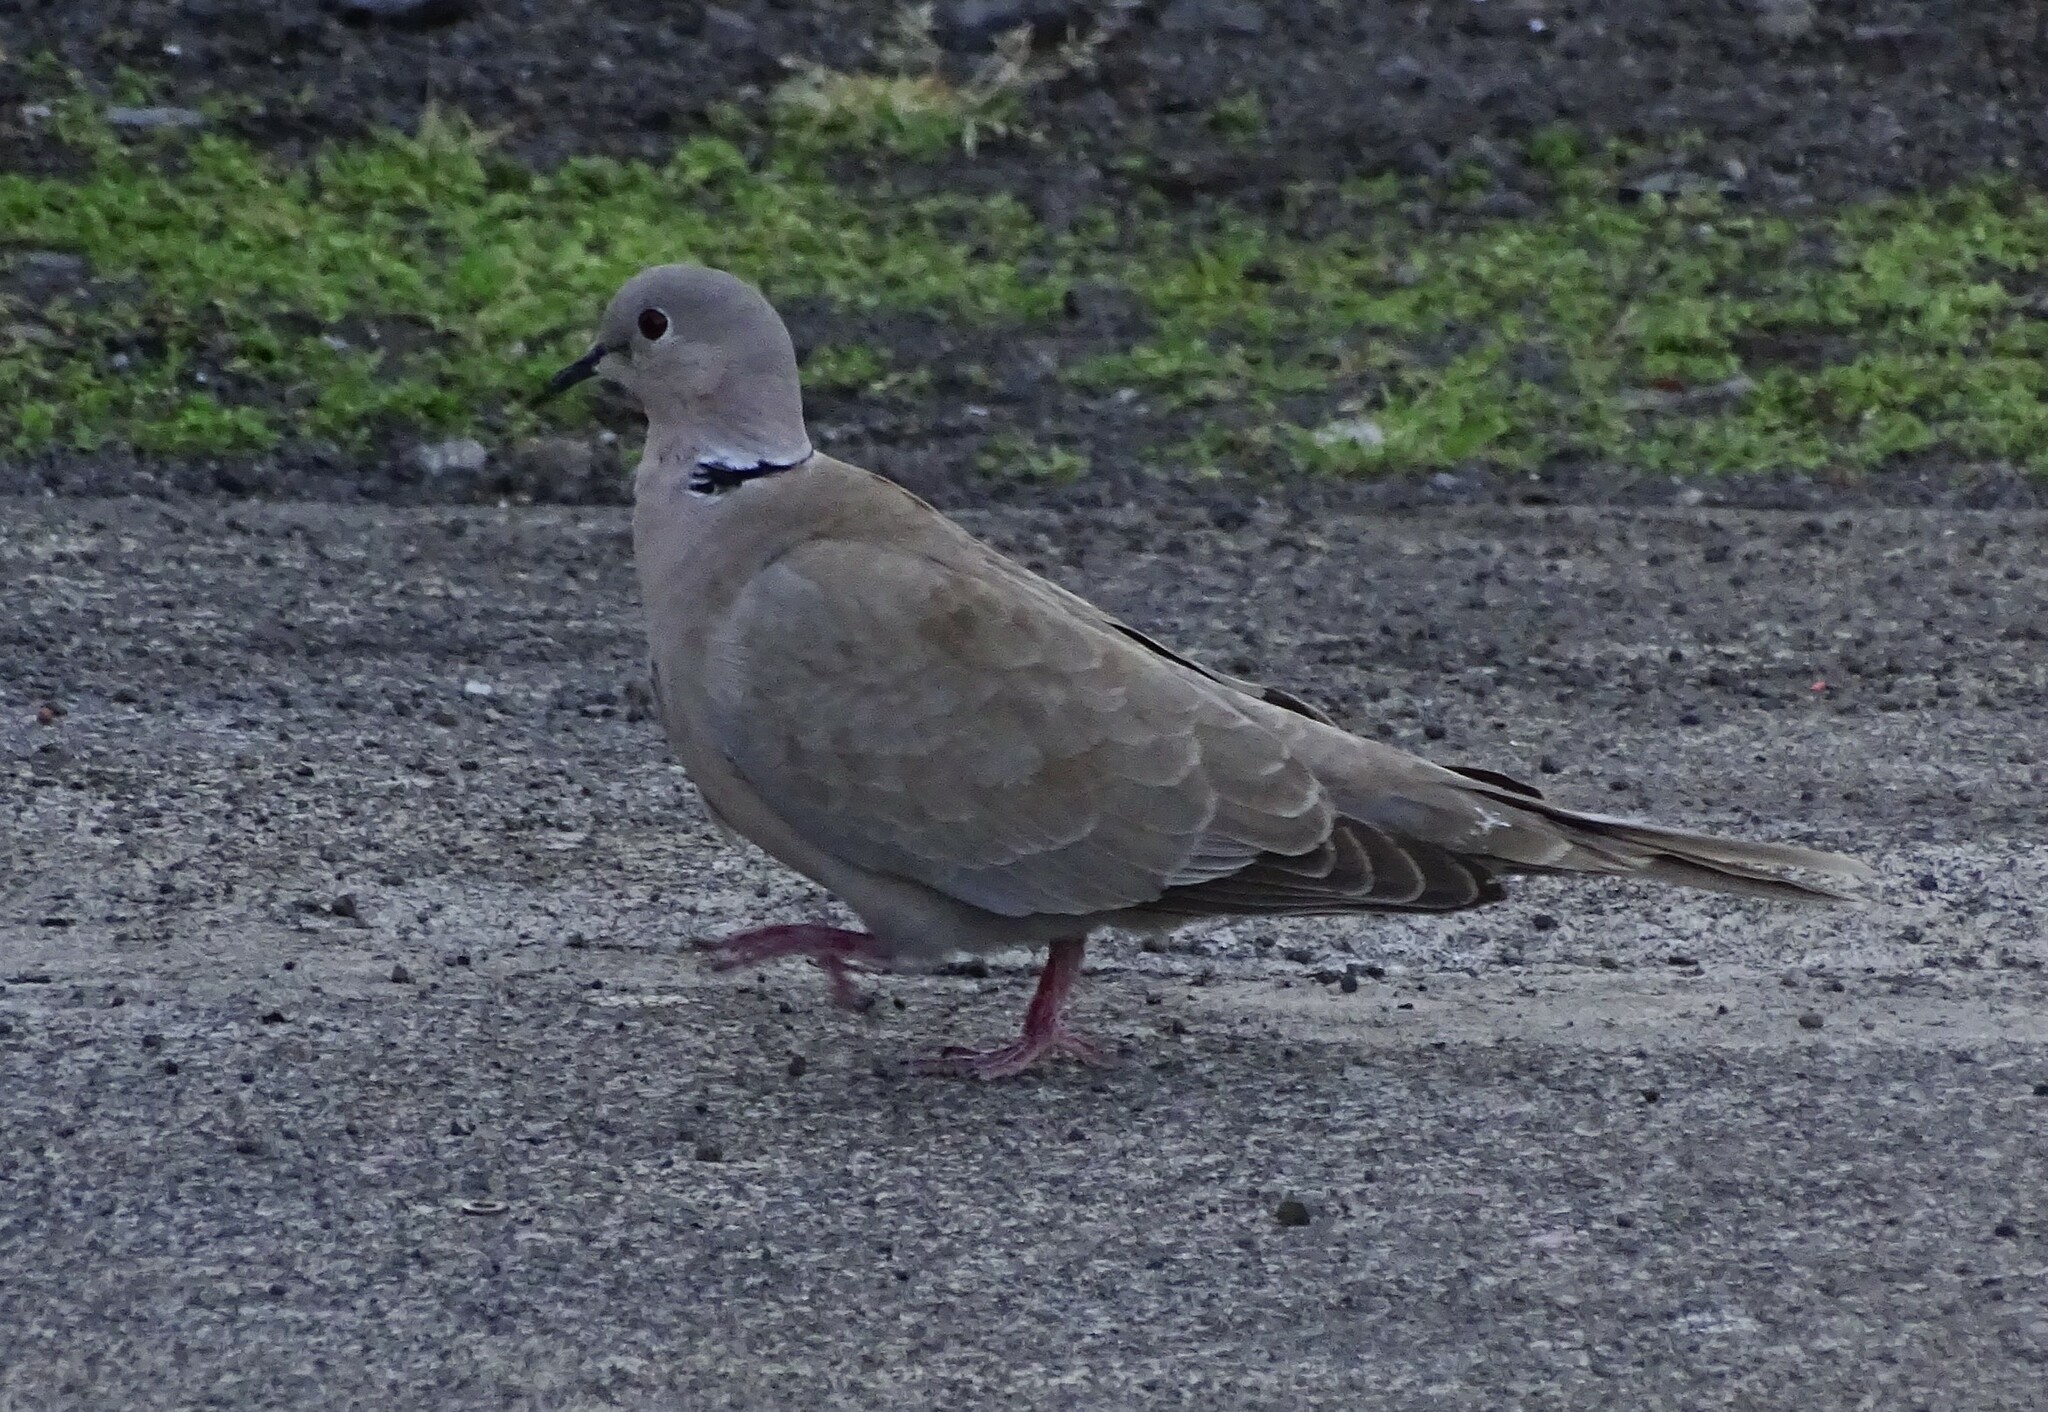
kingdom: Animalia
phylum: Chordata
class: Aves
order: Columbiformes
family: Columbidae
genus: Streptopelia
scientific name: Streptopelia decaocto
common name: Eurasian collared dove
